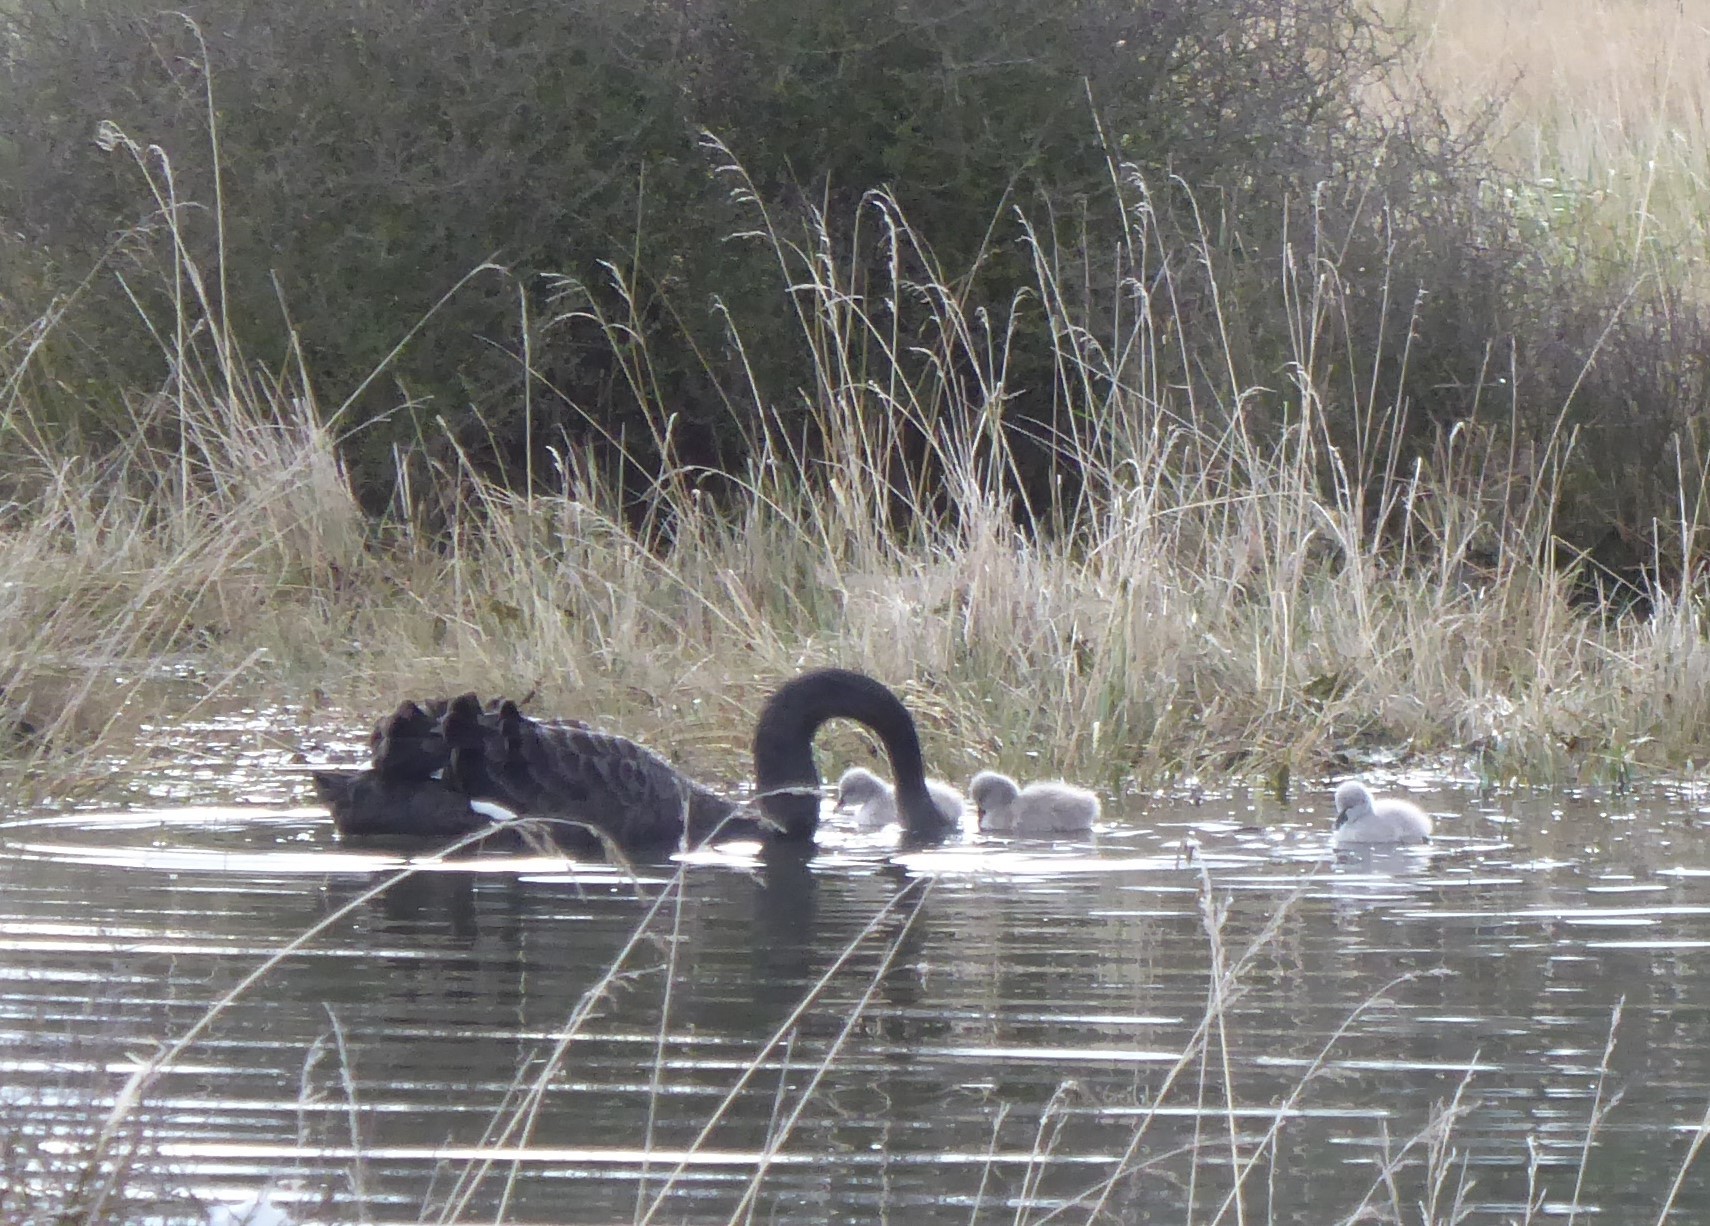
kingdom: Animalia
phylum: Chordata
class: Aves
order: Anseriformes
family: Anatidae
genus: Cygnus
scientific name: Cygnus atratus
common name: Black swan
